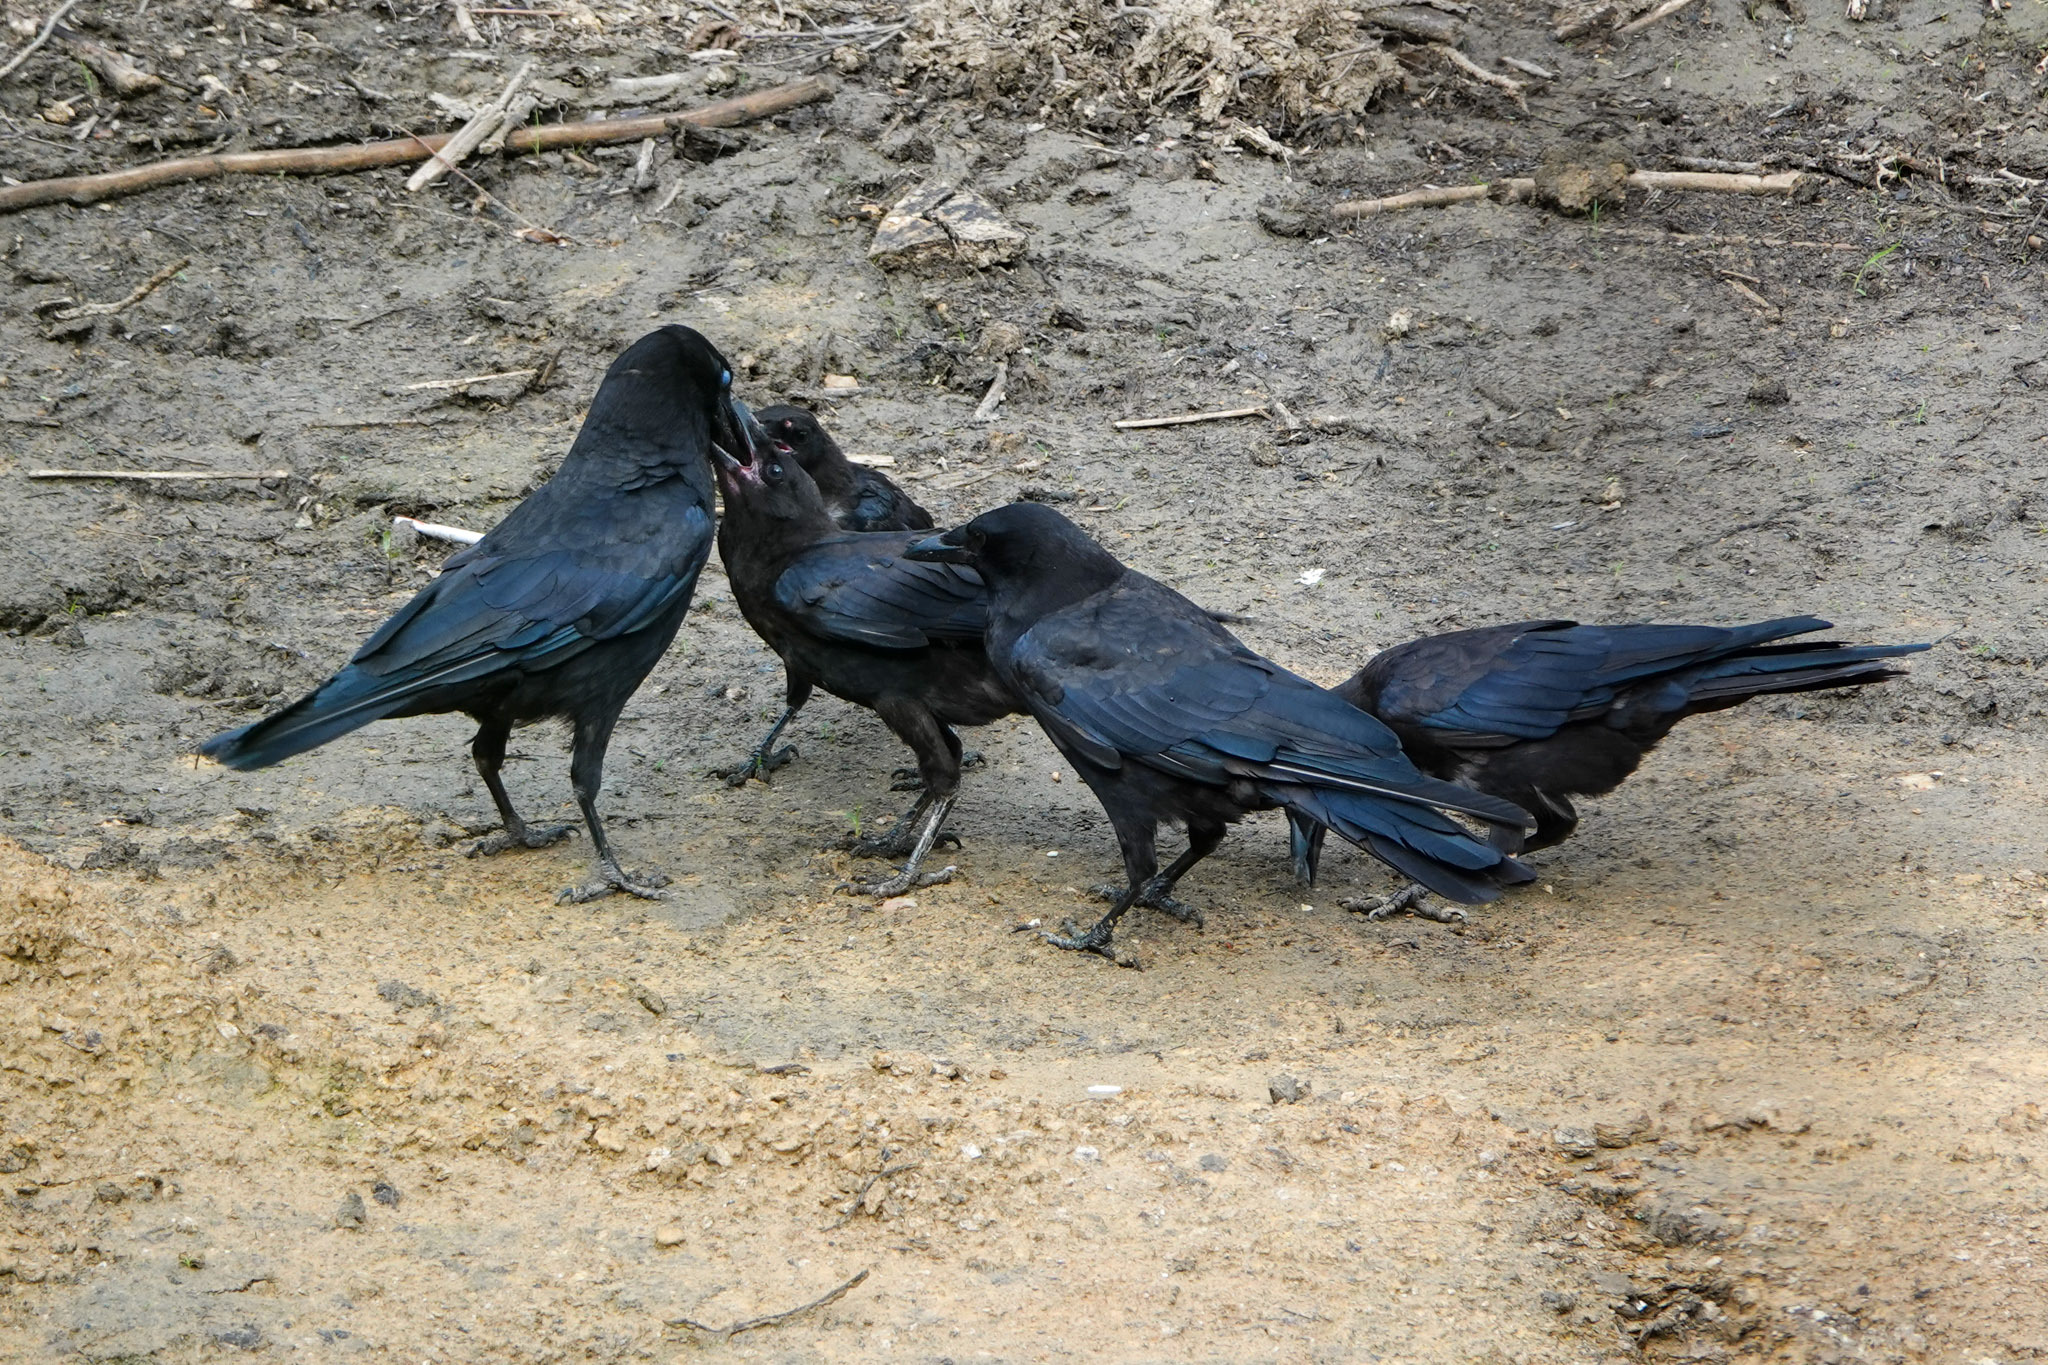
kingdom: Animalia
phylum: Chordata
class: Aves
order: Passeriformes
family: Corvidae
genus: Corvus
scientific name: Corvus brachyrhynchos
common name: American crow
